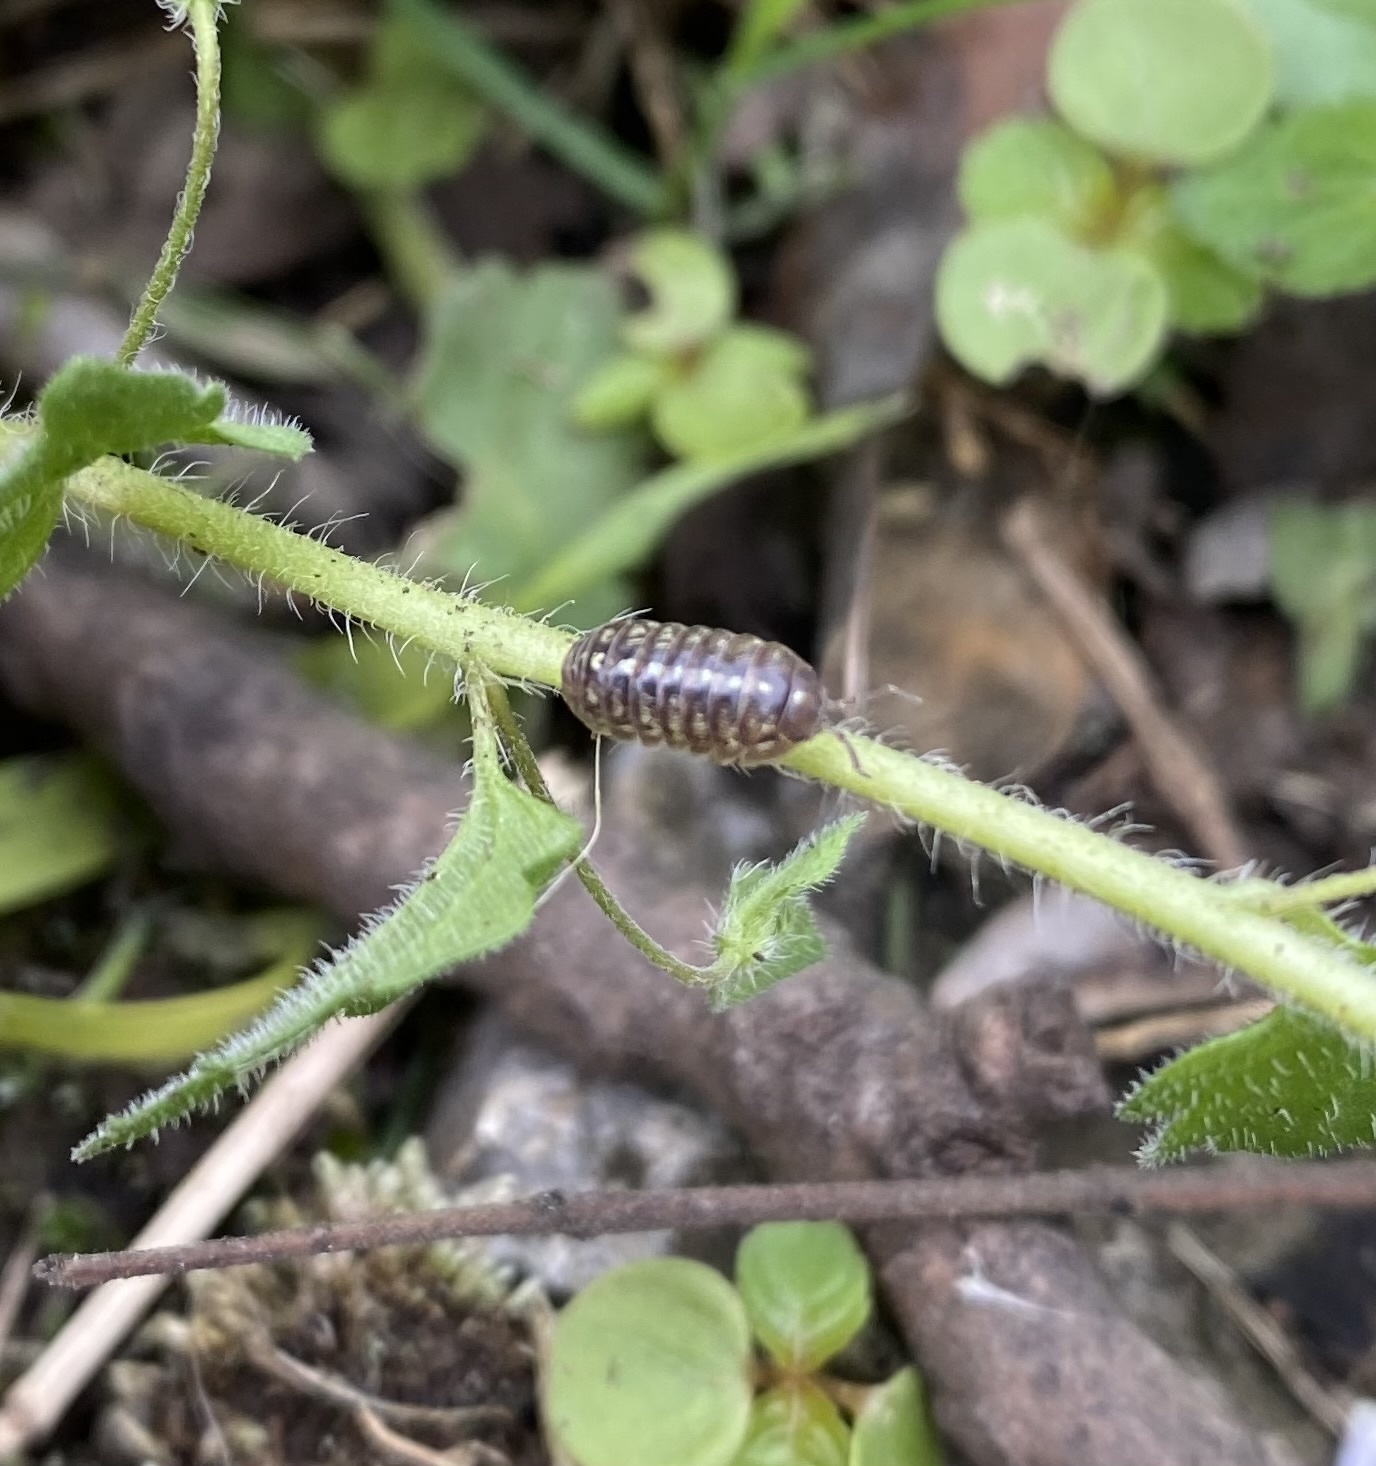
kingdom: Animalia
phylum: Arthropoda
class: Malacostraca
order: Isopoda
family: Armadillidiidae
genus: Armadillidium
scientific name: Armadillidium vulgare
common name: Common pill woodlouse
